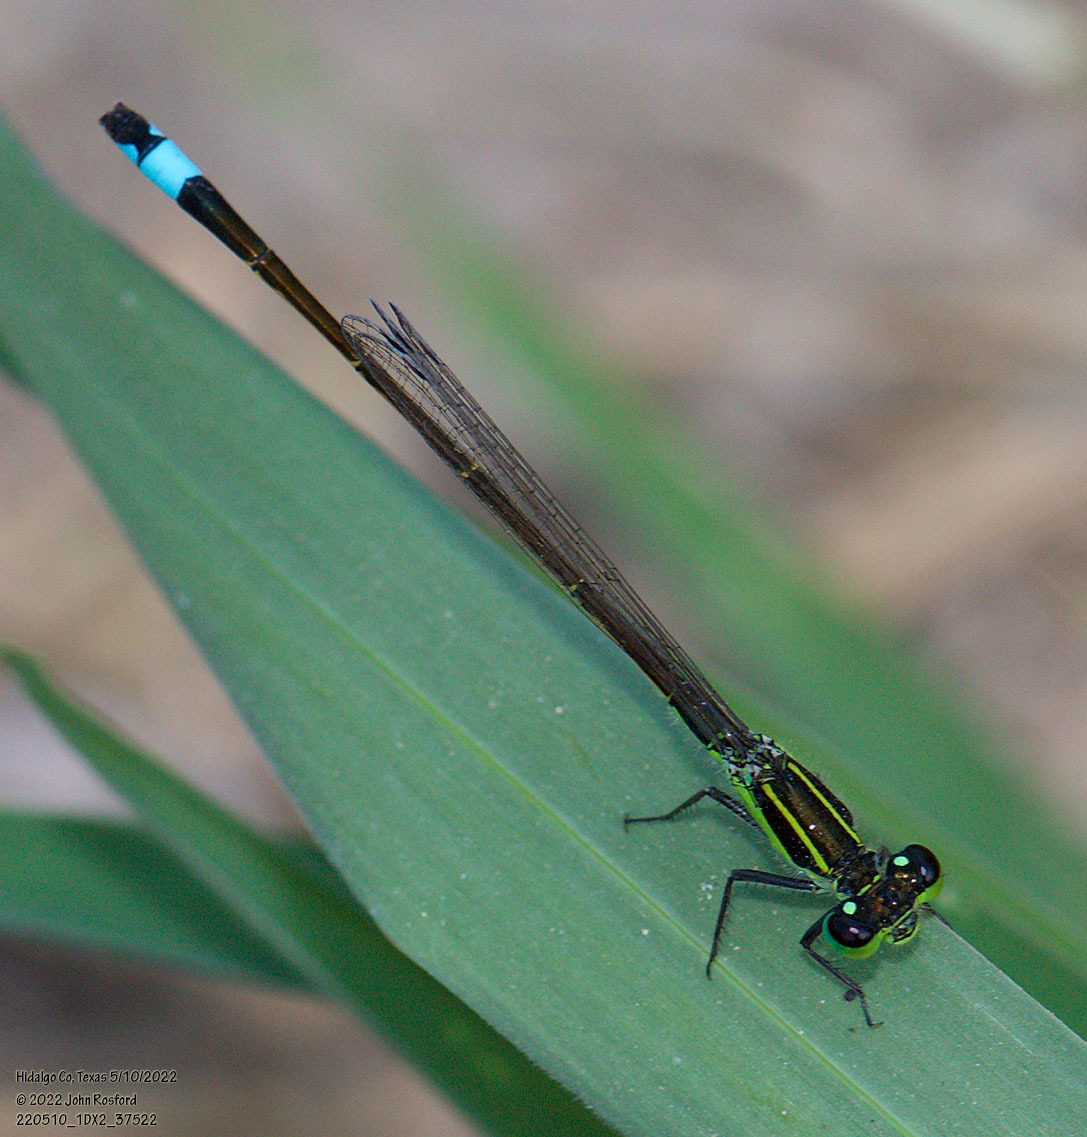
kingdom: Animalia
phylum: Arthropoda
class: Insecta
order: Odonata
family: Coenagrionidae
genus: Ischnura
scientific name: Ischnura ramburii
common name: Rambur's forktail
